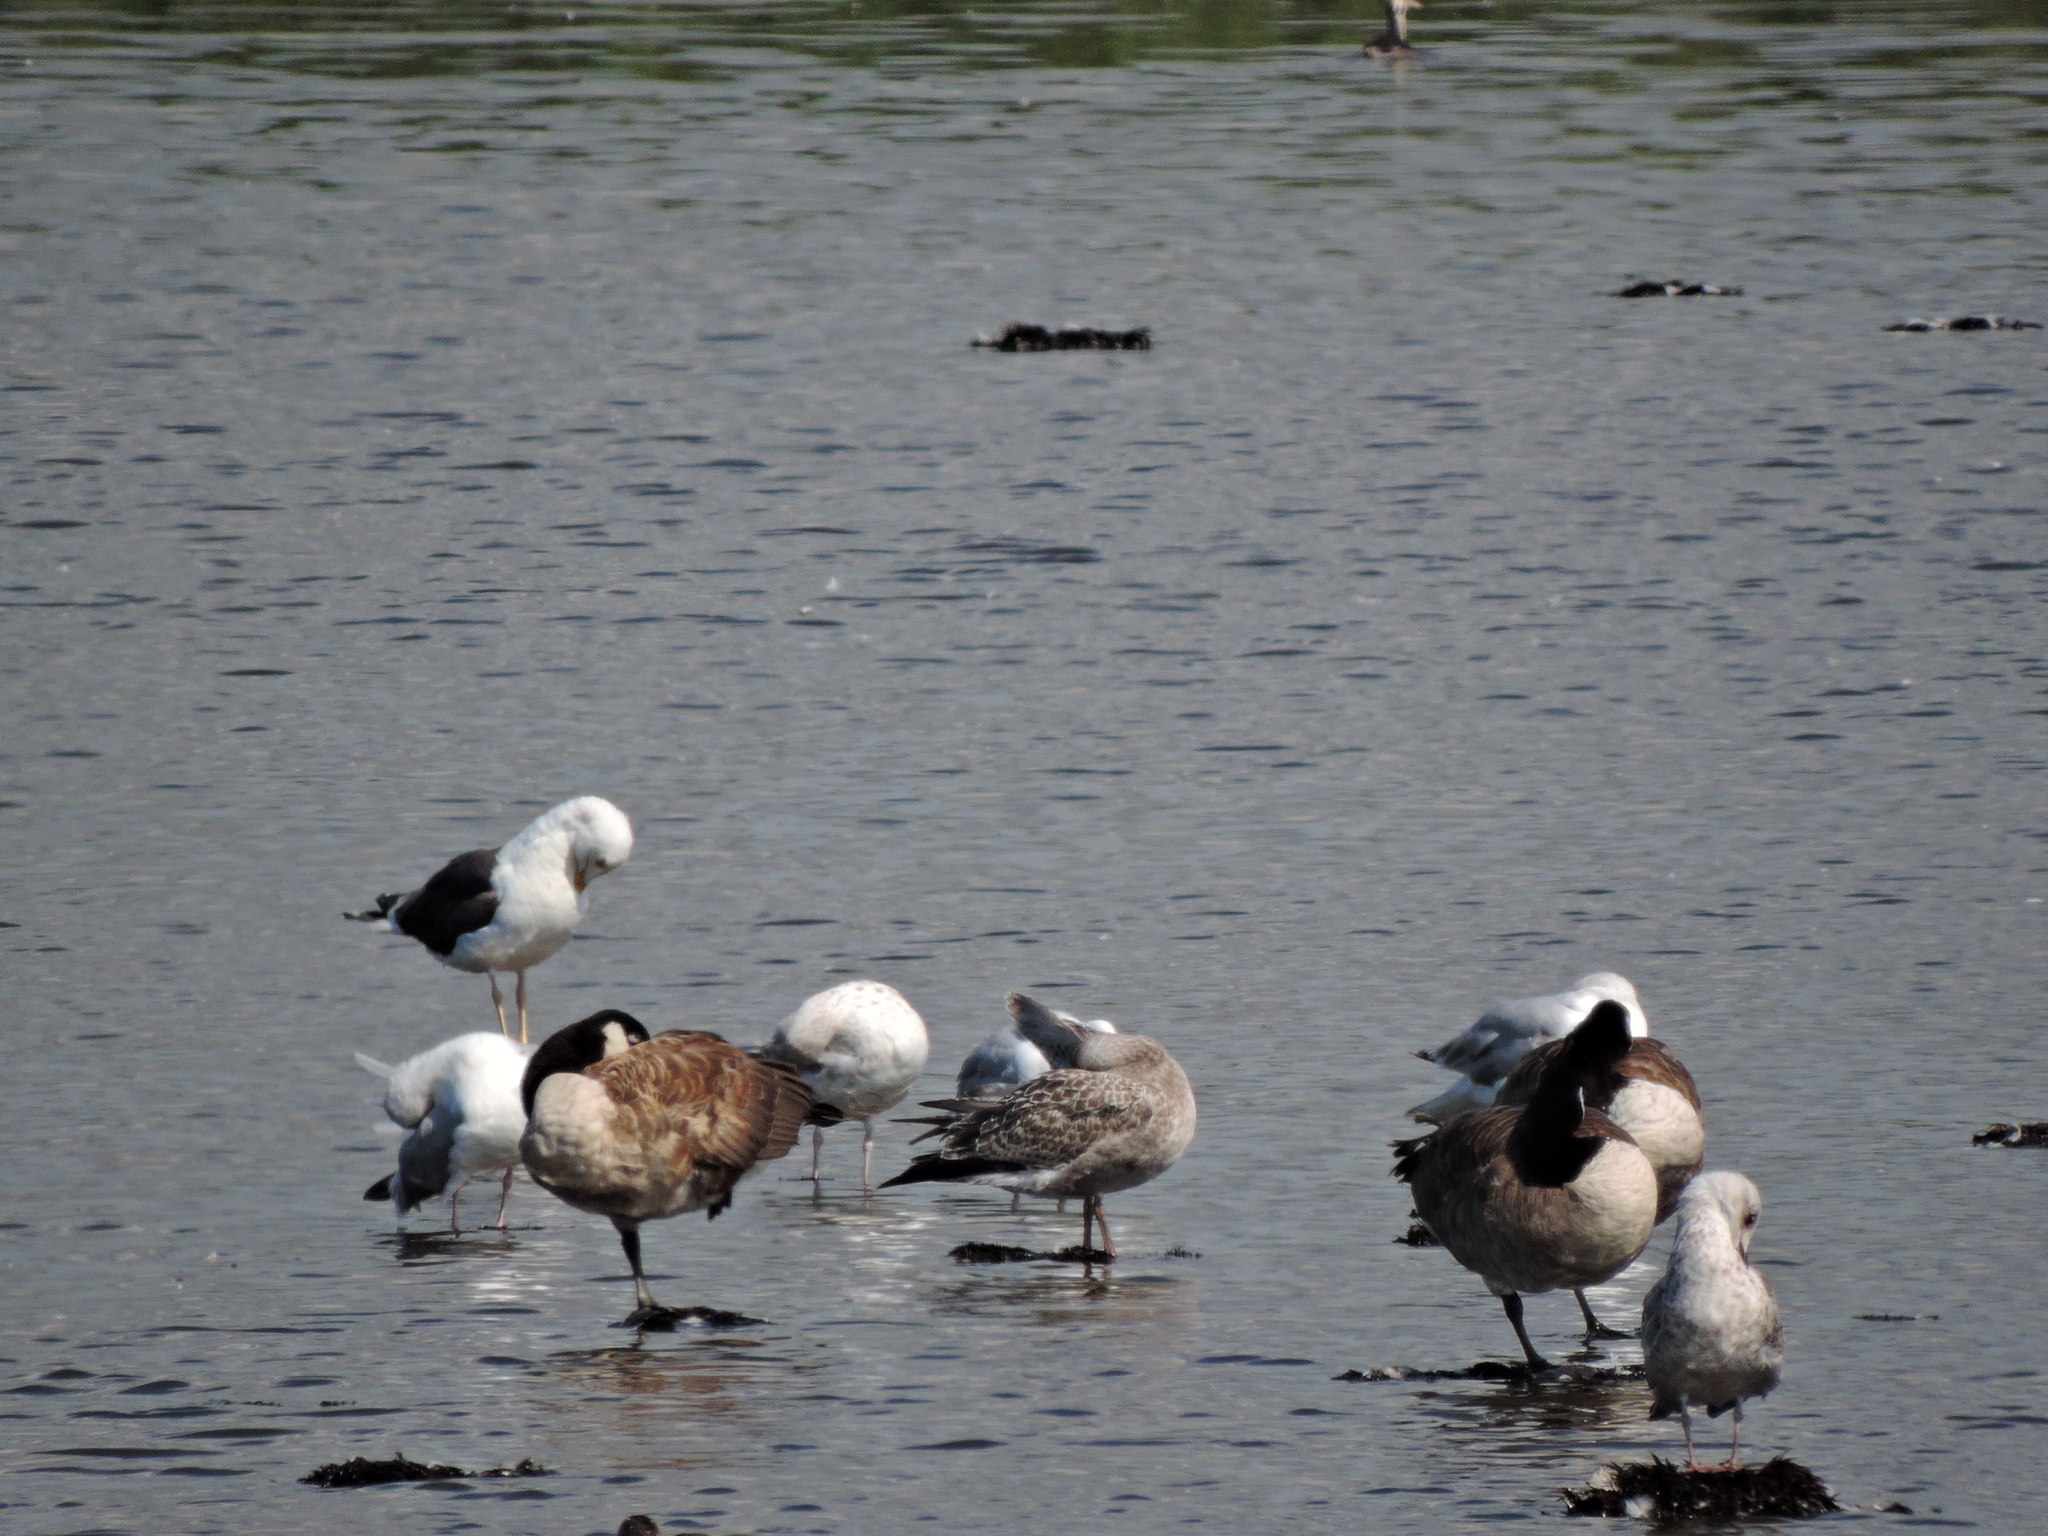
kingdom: Animalia
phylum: Chordata
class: Aves
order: Charadriiformes
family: Laridae
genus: Larus
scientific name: Larus fuscus
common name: Lesser black-backed gull
